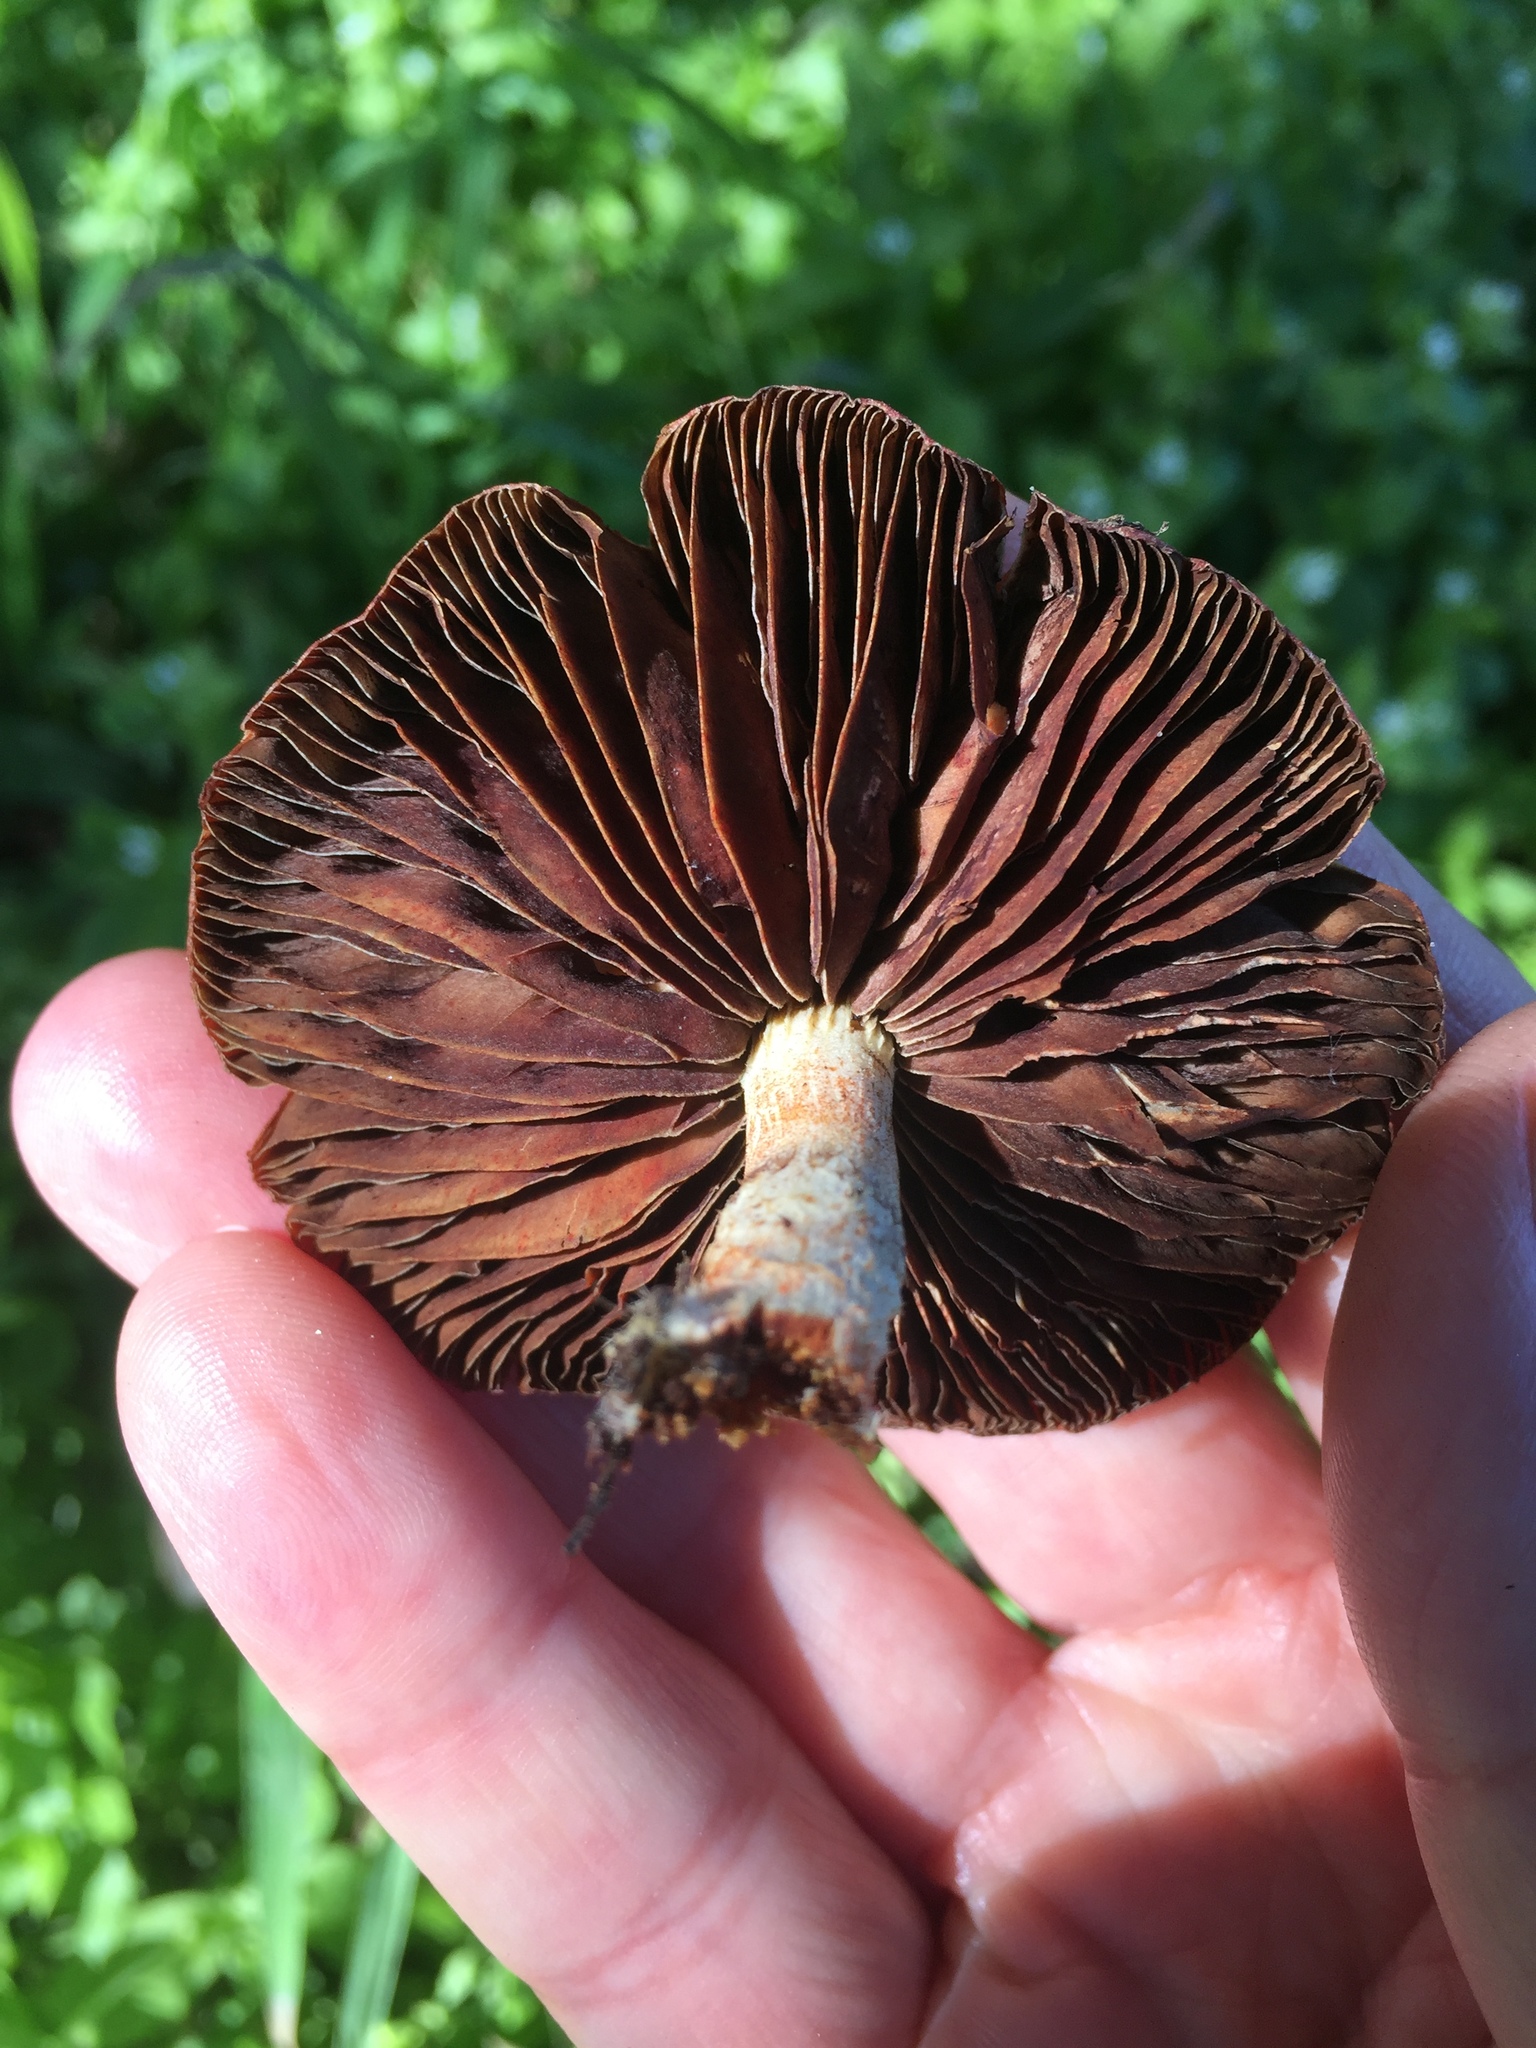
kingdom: Fungi
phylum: Basidiomycota
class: Agaricomycetes
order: Agaricales
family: Strophariaceae
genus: Leratiomyces
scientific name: Leratiomyces ceres
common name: Redlead roundhead
